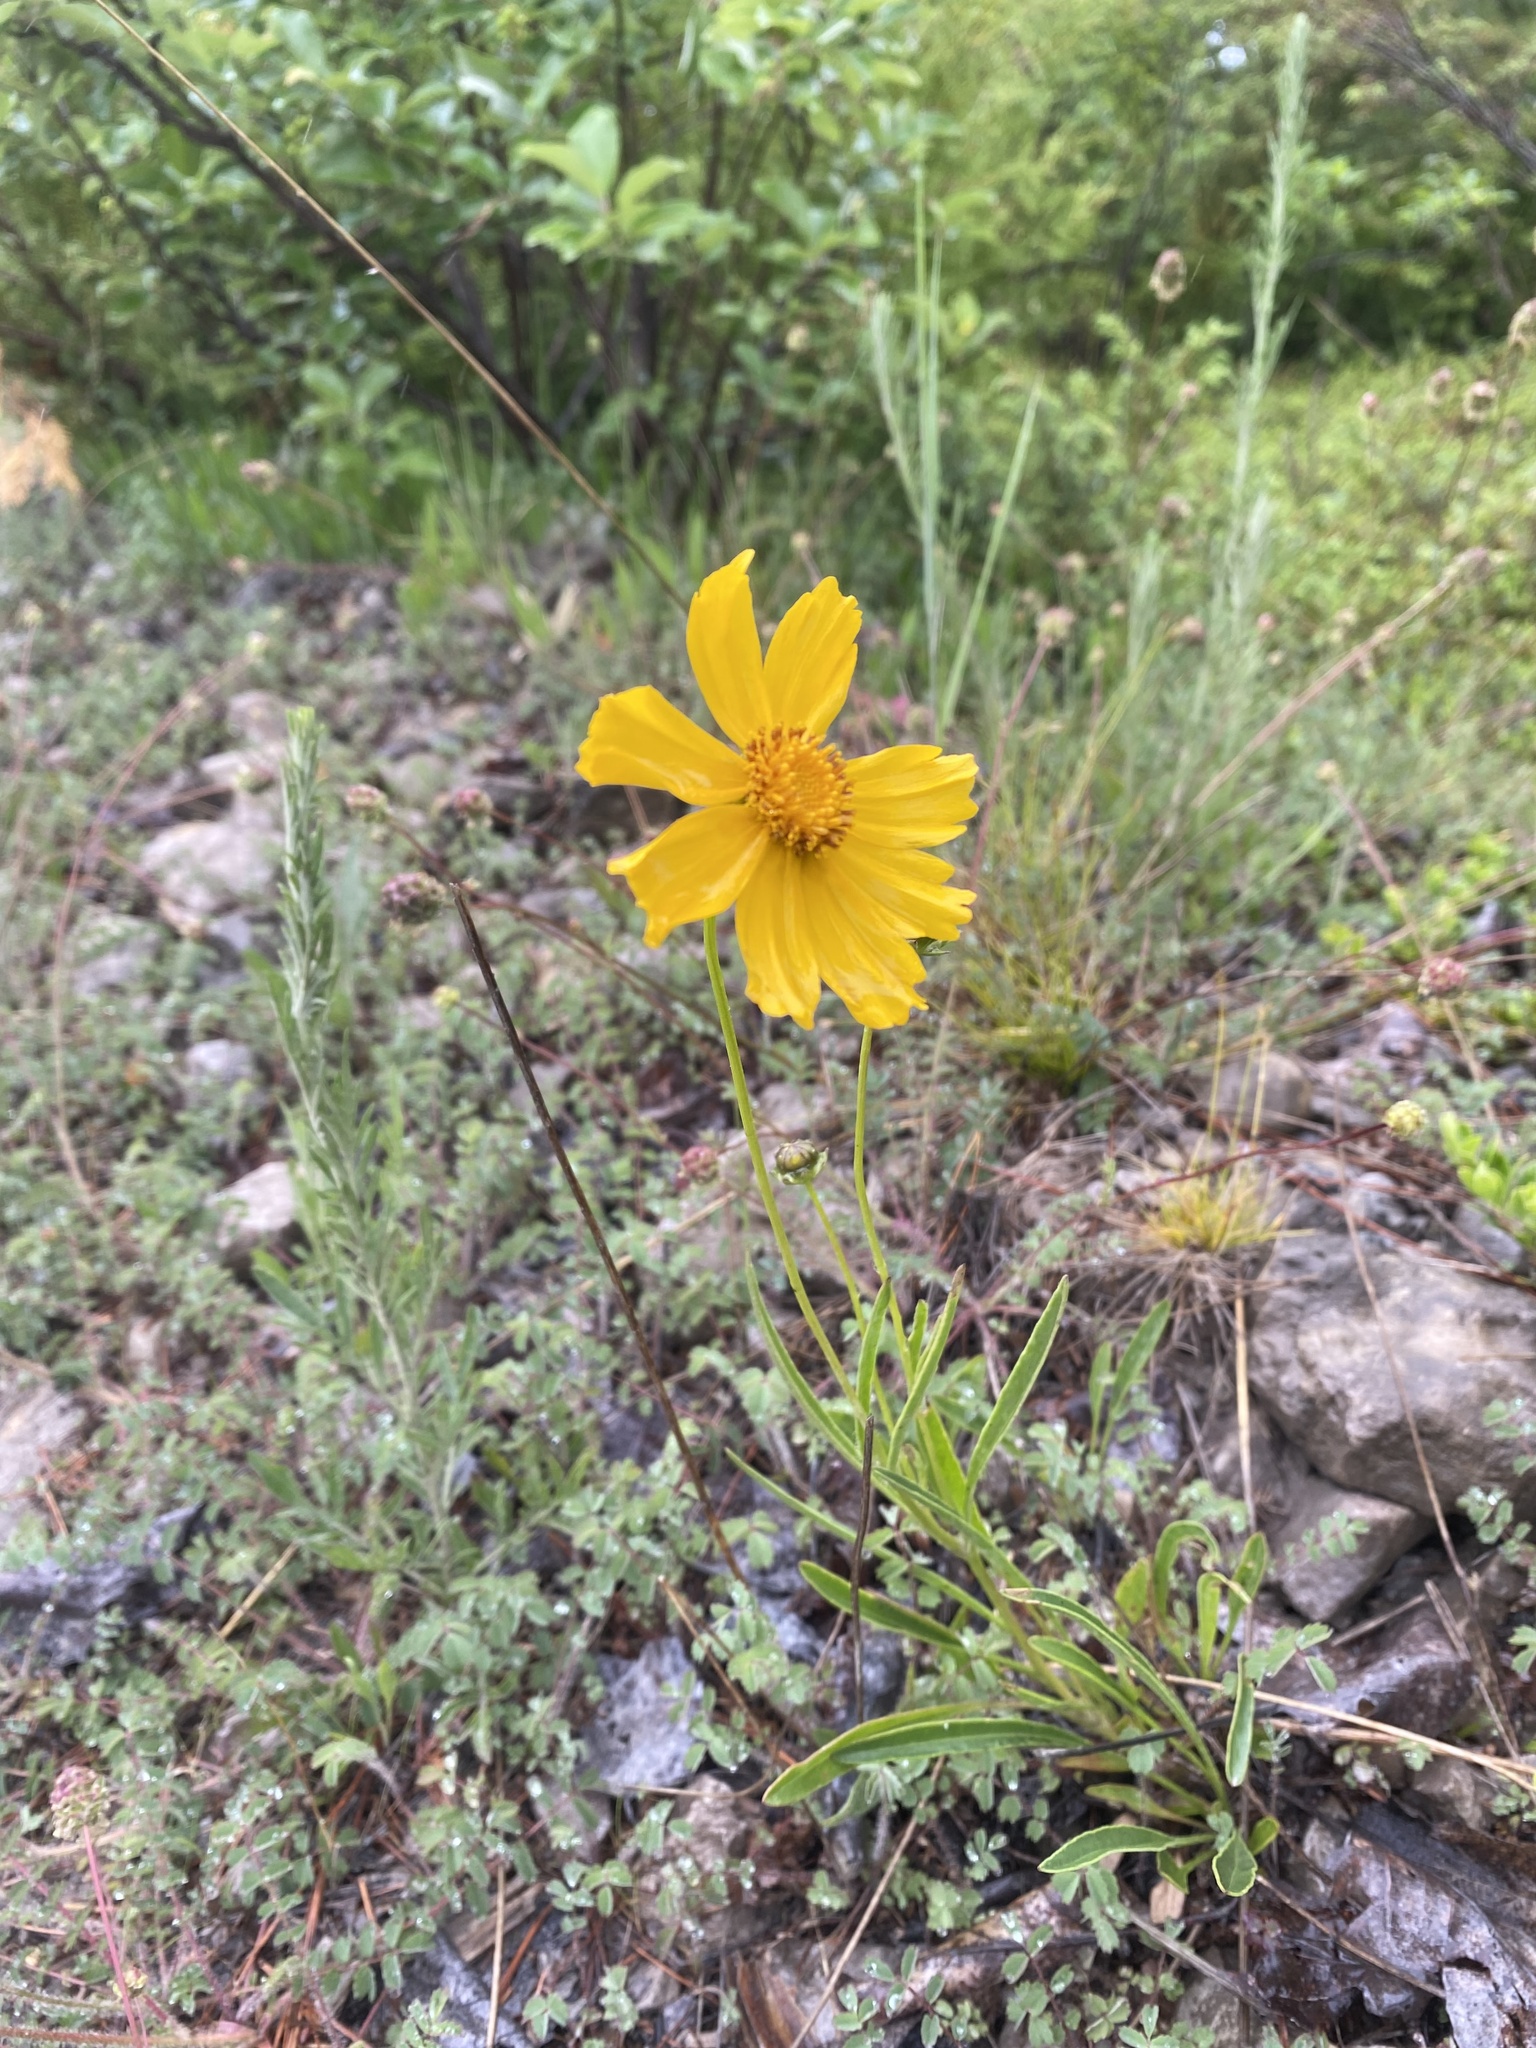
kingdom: Plantae
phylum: Tracheophyta
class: Magnoliopsida
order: Asterales
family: Asteraceae
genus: Coreopsis
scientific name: Coreopsis lanceolata
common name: Garden coreopsis
